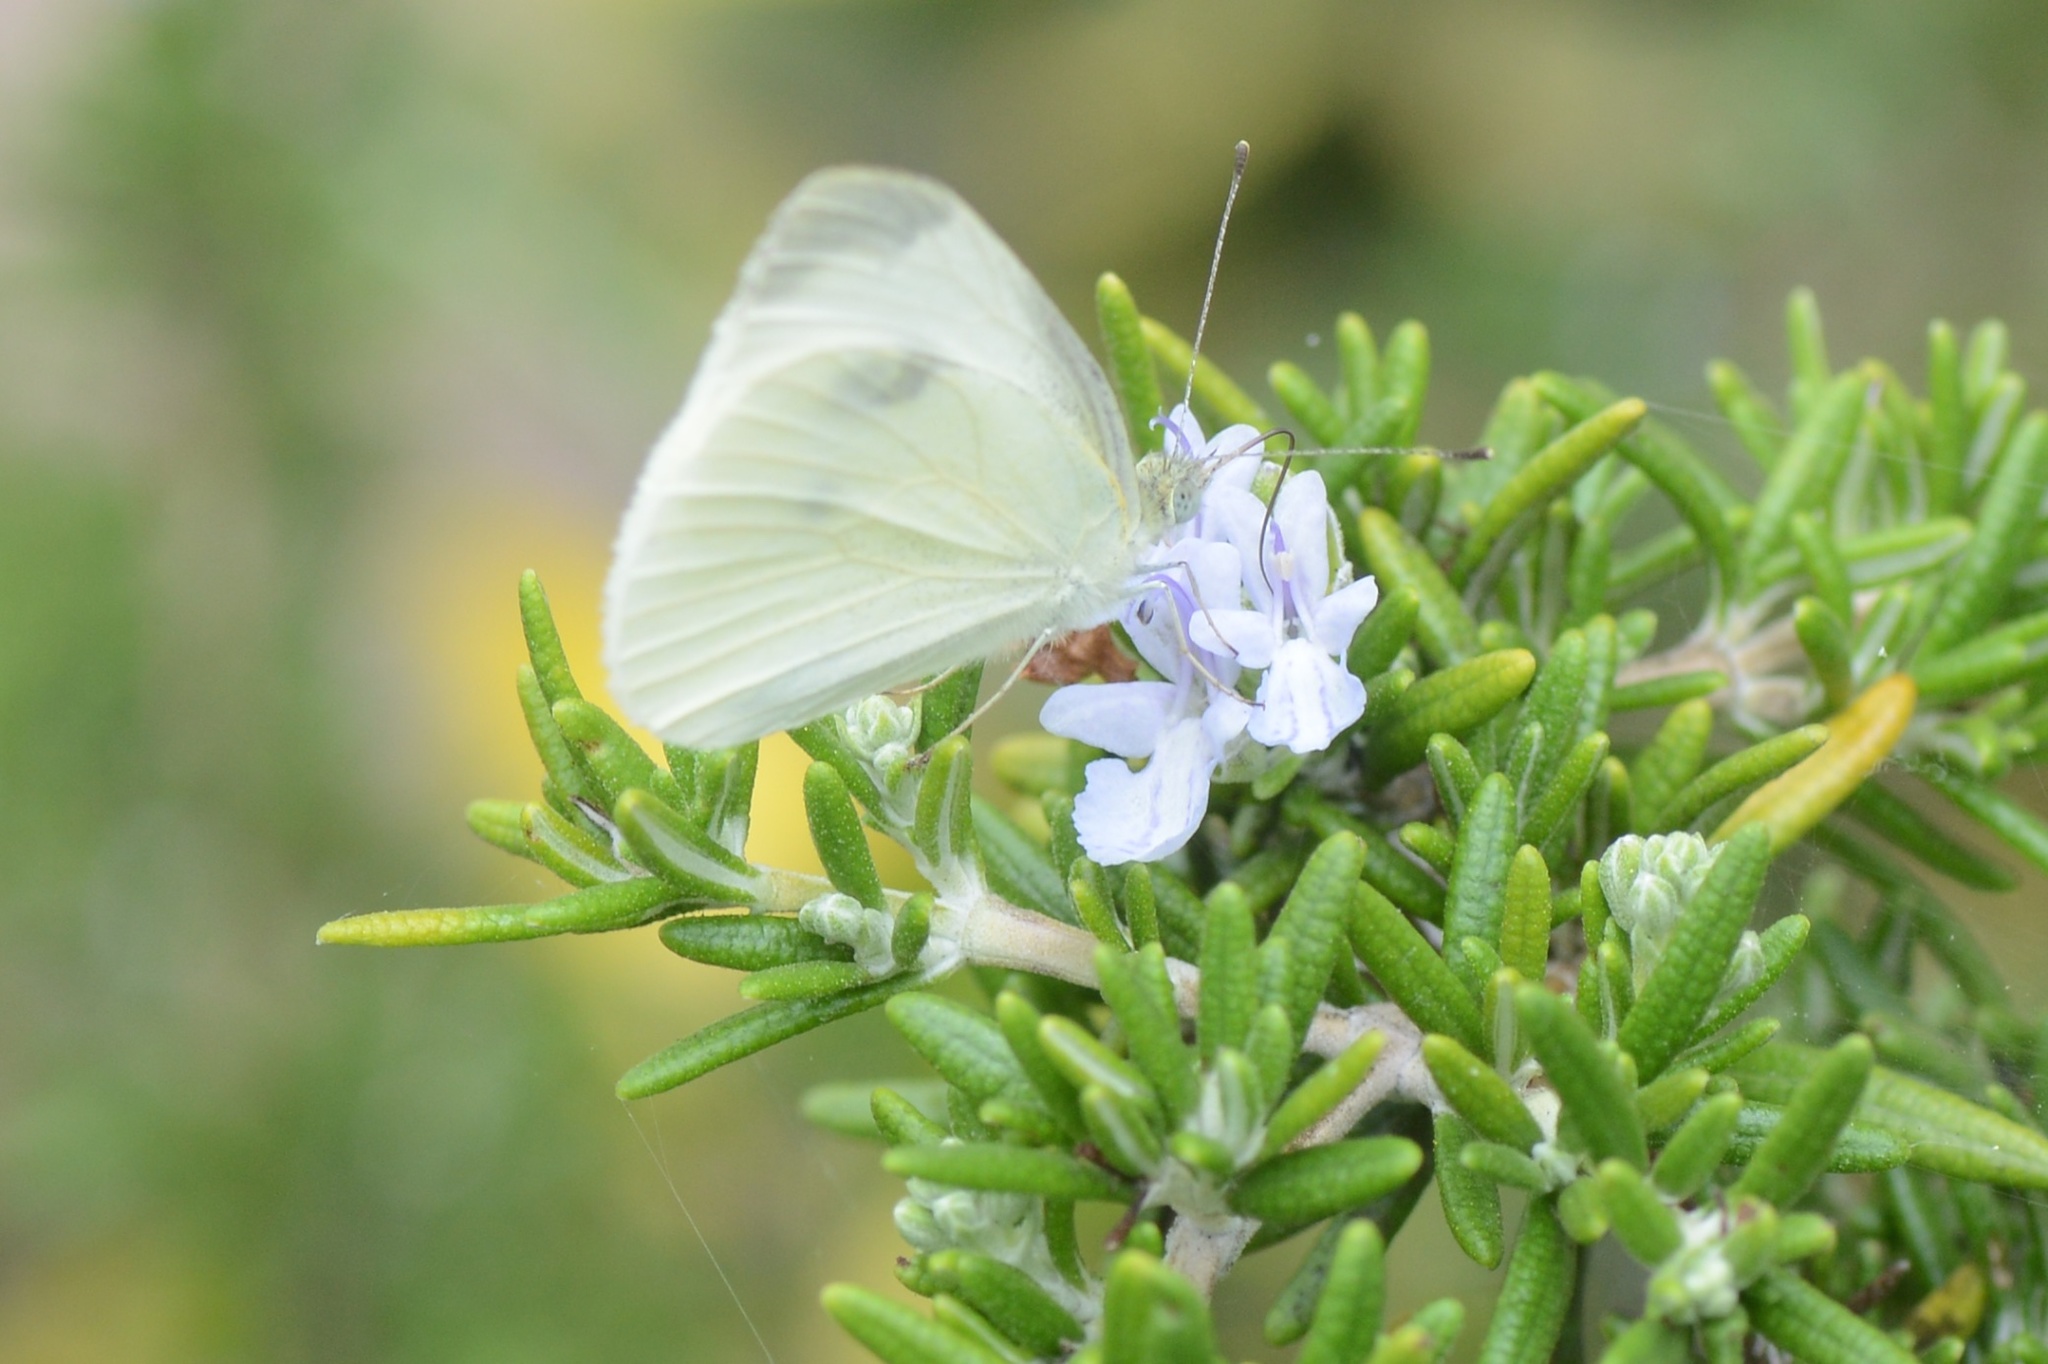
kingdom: Animalia
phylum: Arthropoda
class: Insecta
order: Lepidoptera
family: Pieridae
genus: Pieris
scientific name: Pieris rapae
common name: Small white
